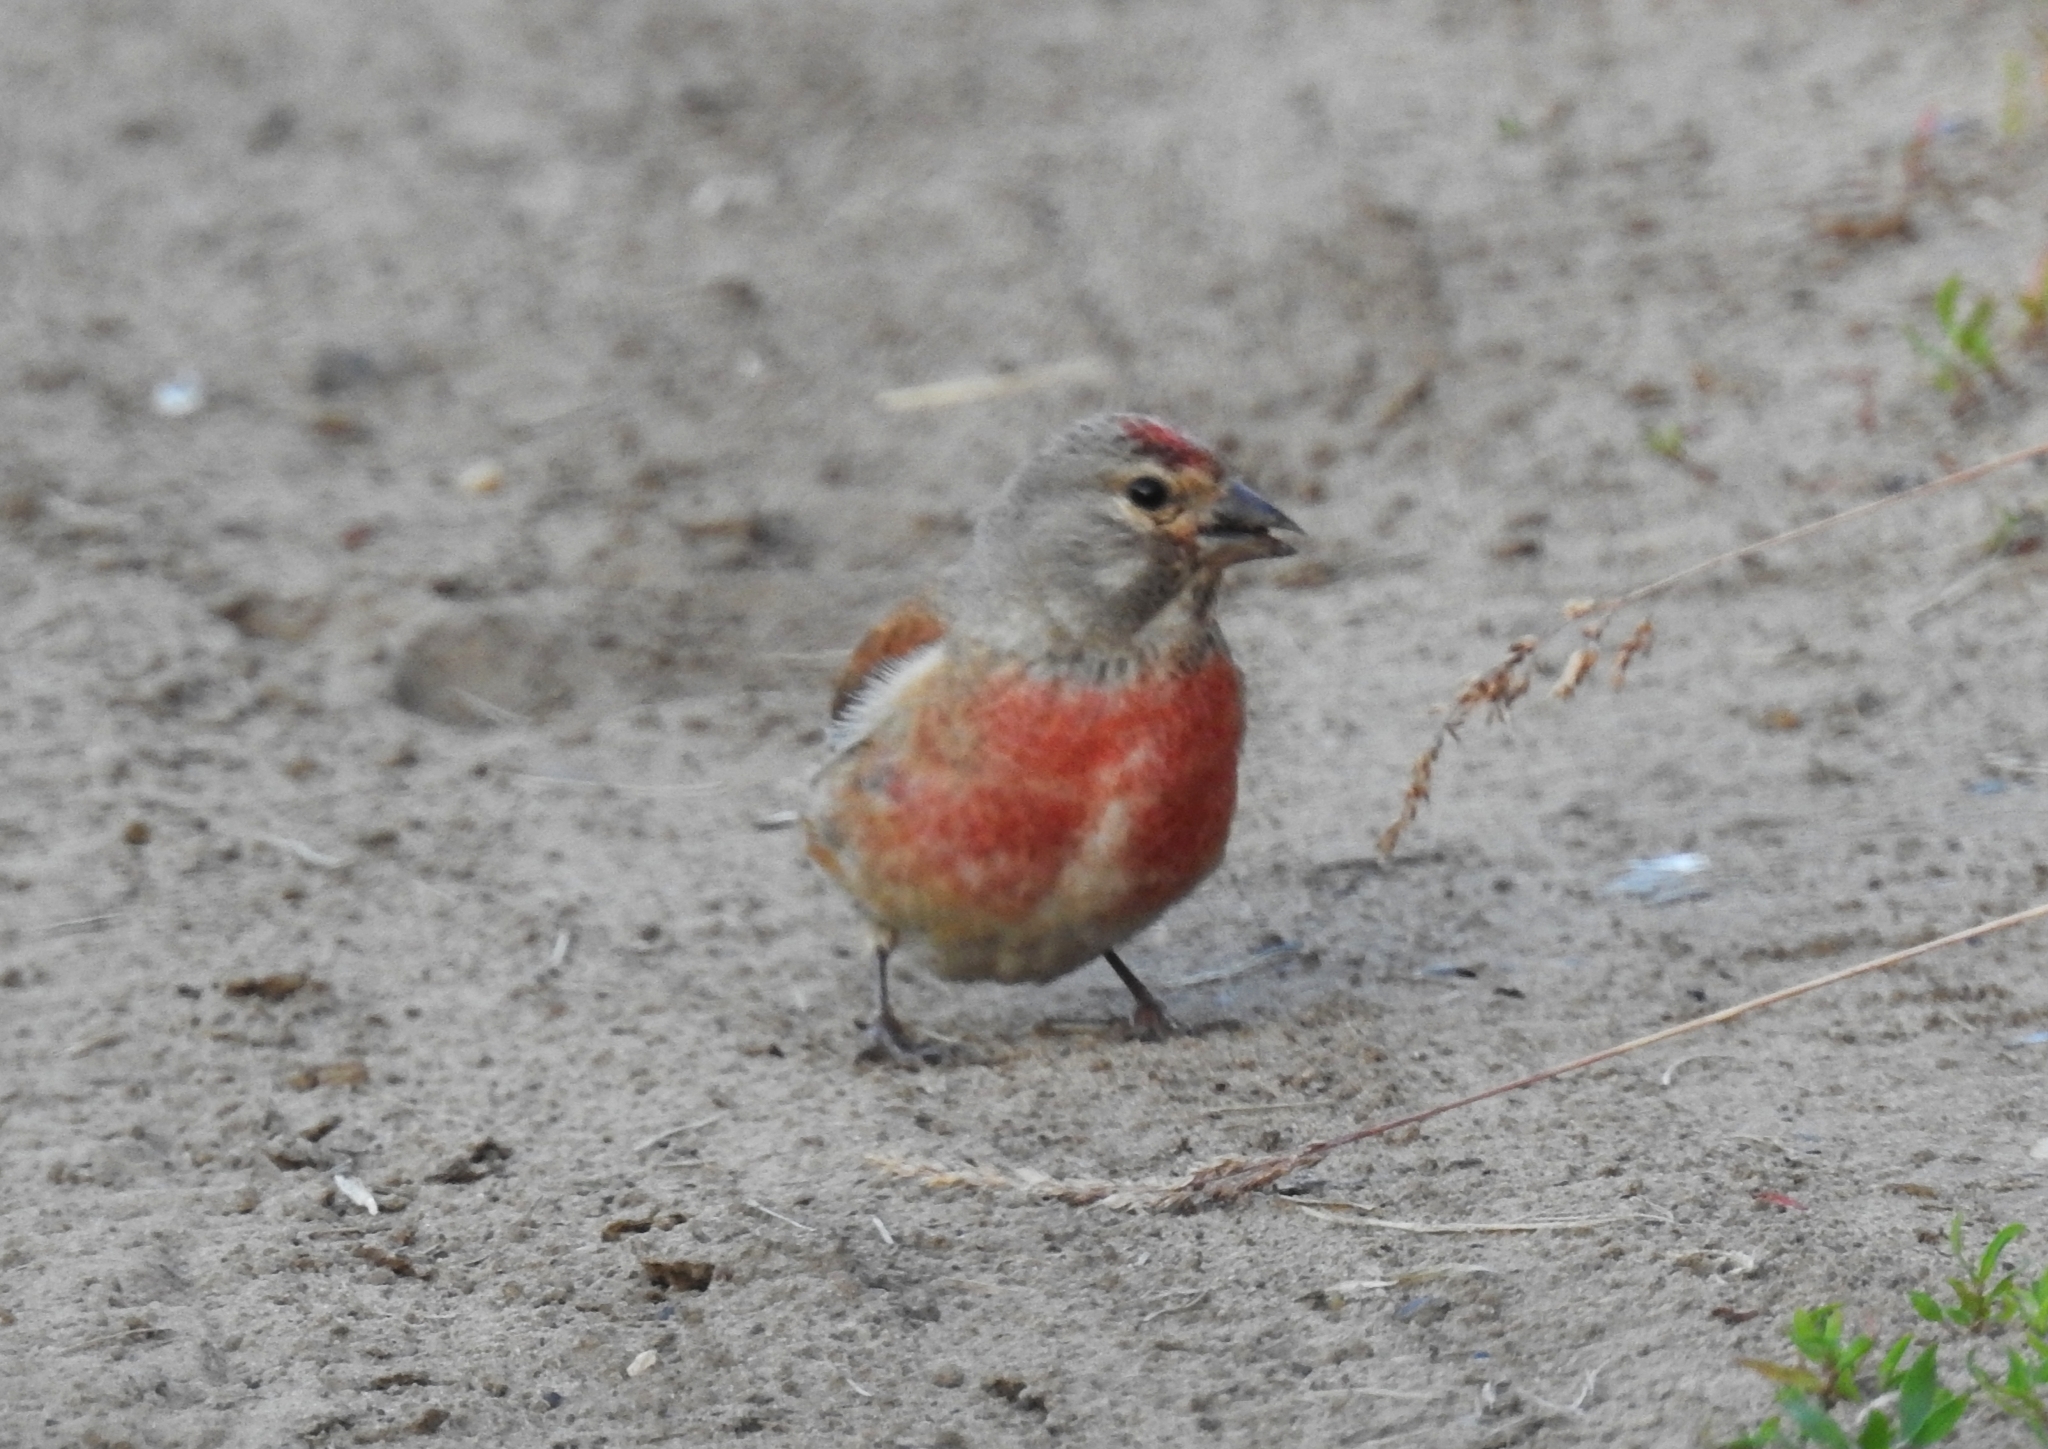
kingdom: Animalia
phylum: Chordata
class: Aves
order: Passeriformes
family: Fringillidae
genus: Linaria
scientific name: Linaria cannabina
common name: Common linnet
